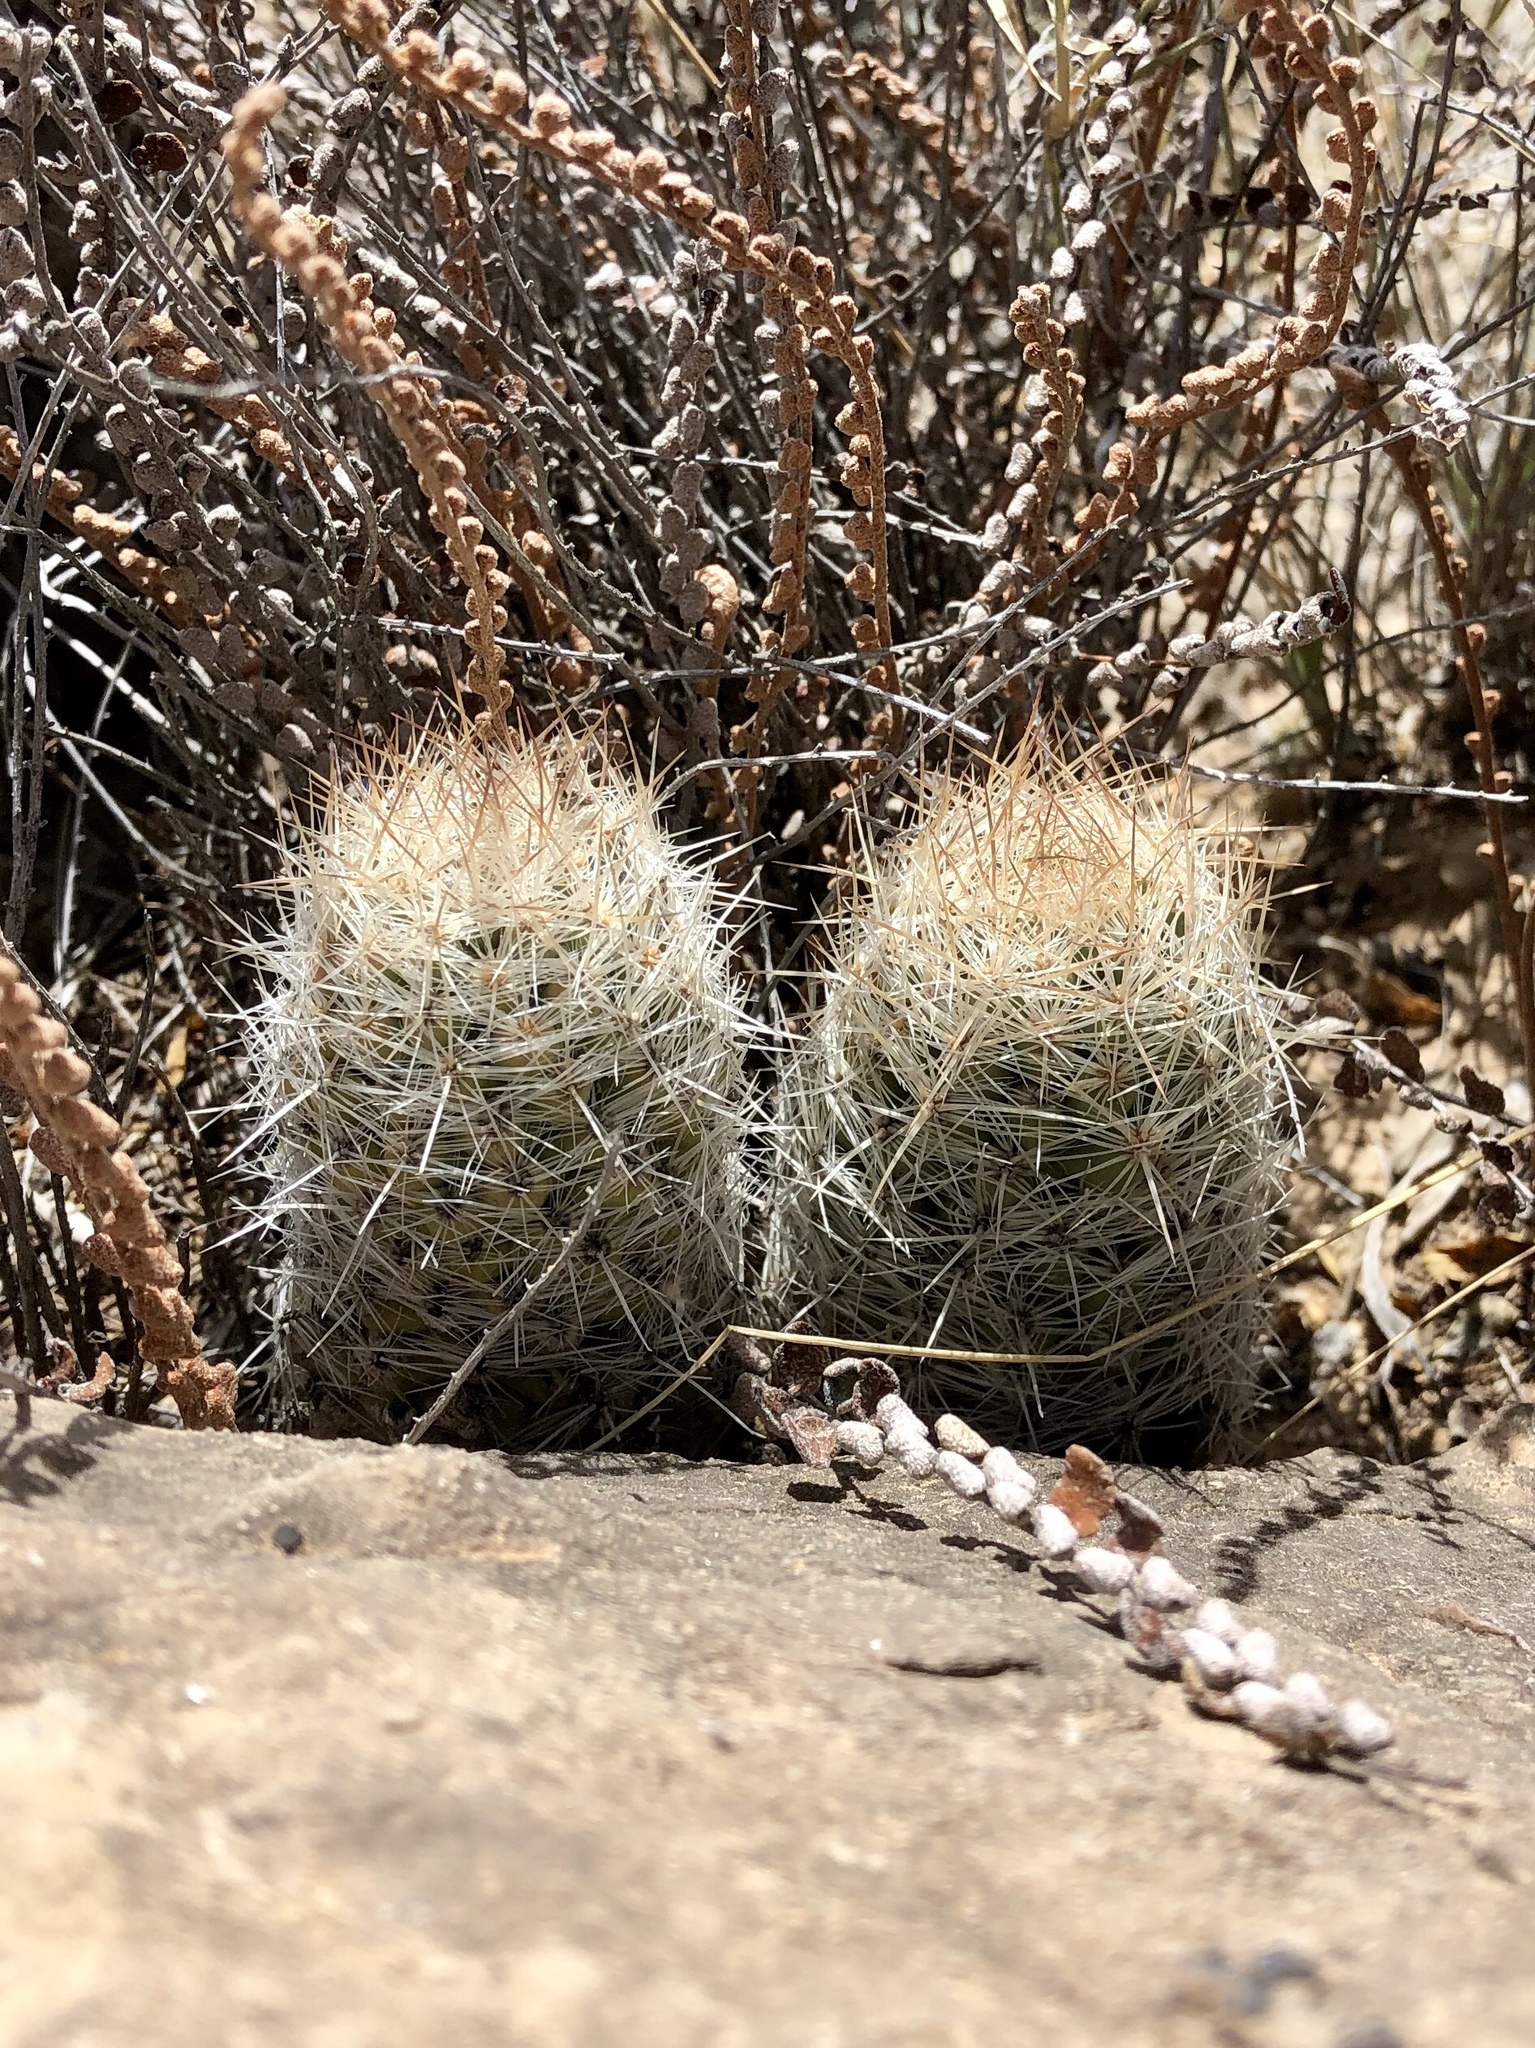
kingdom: Plantae
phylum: Tracheophyta
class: Magnoliopsida
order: Caryophyllales
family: Cactaceae
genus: Pelecyphora
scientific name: Pelecyphora tuberculosa
